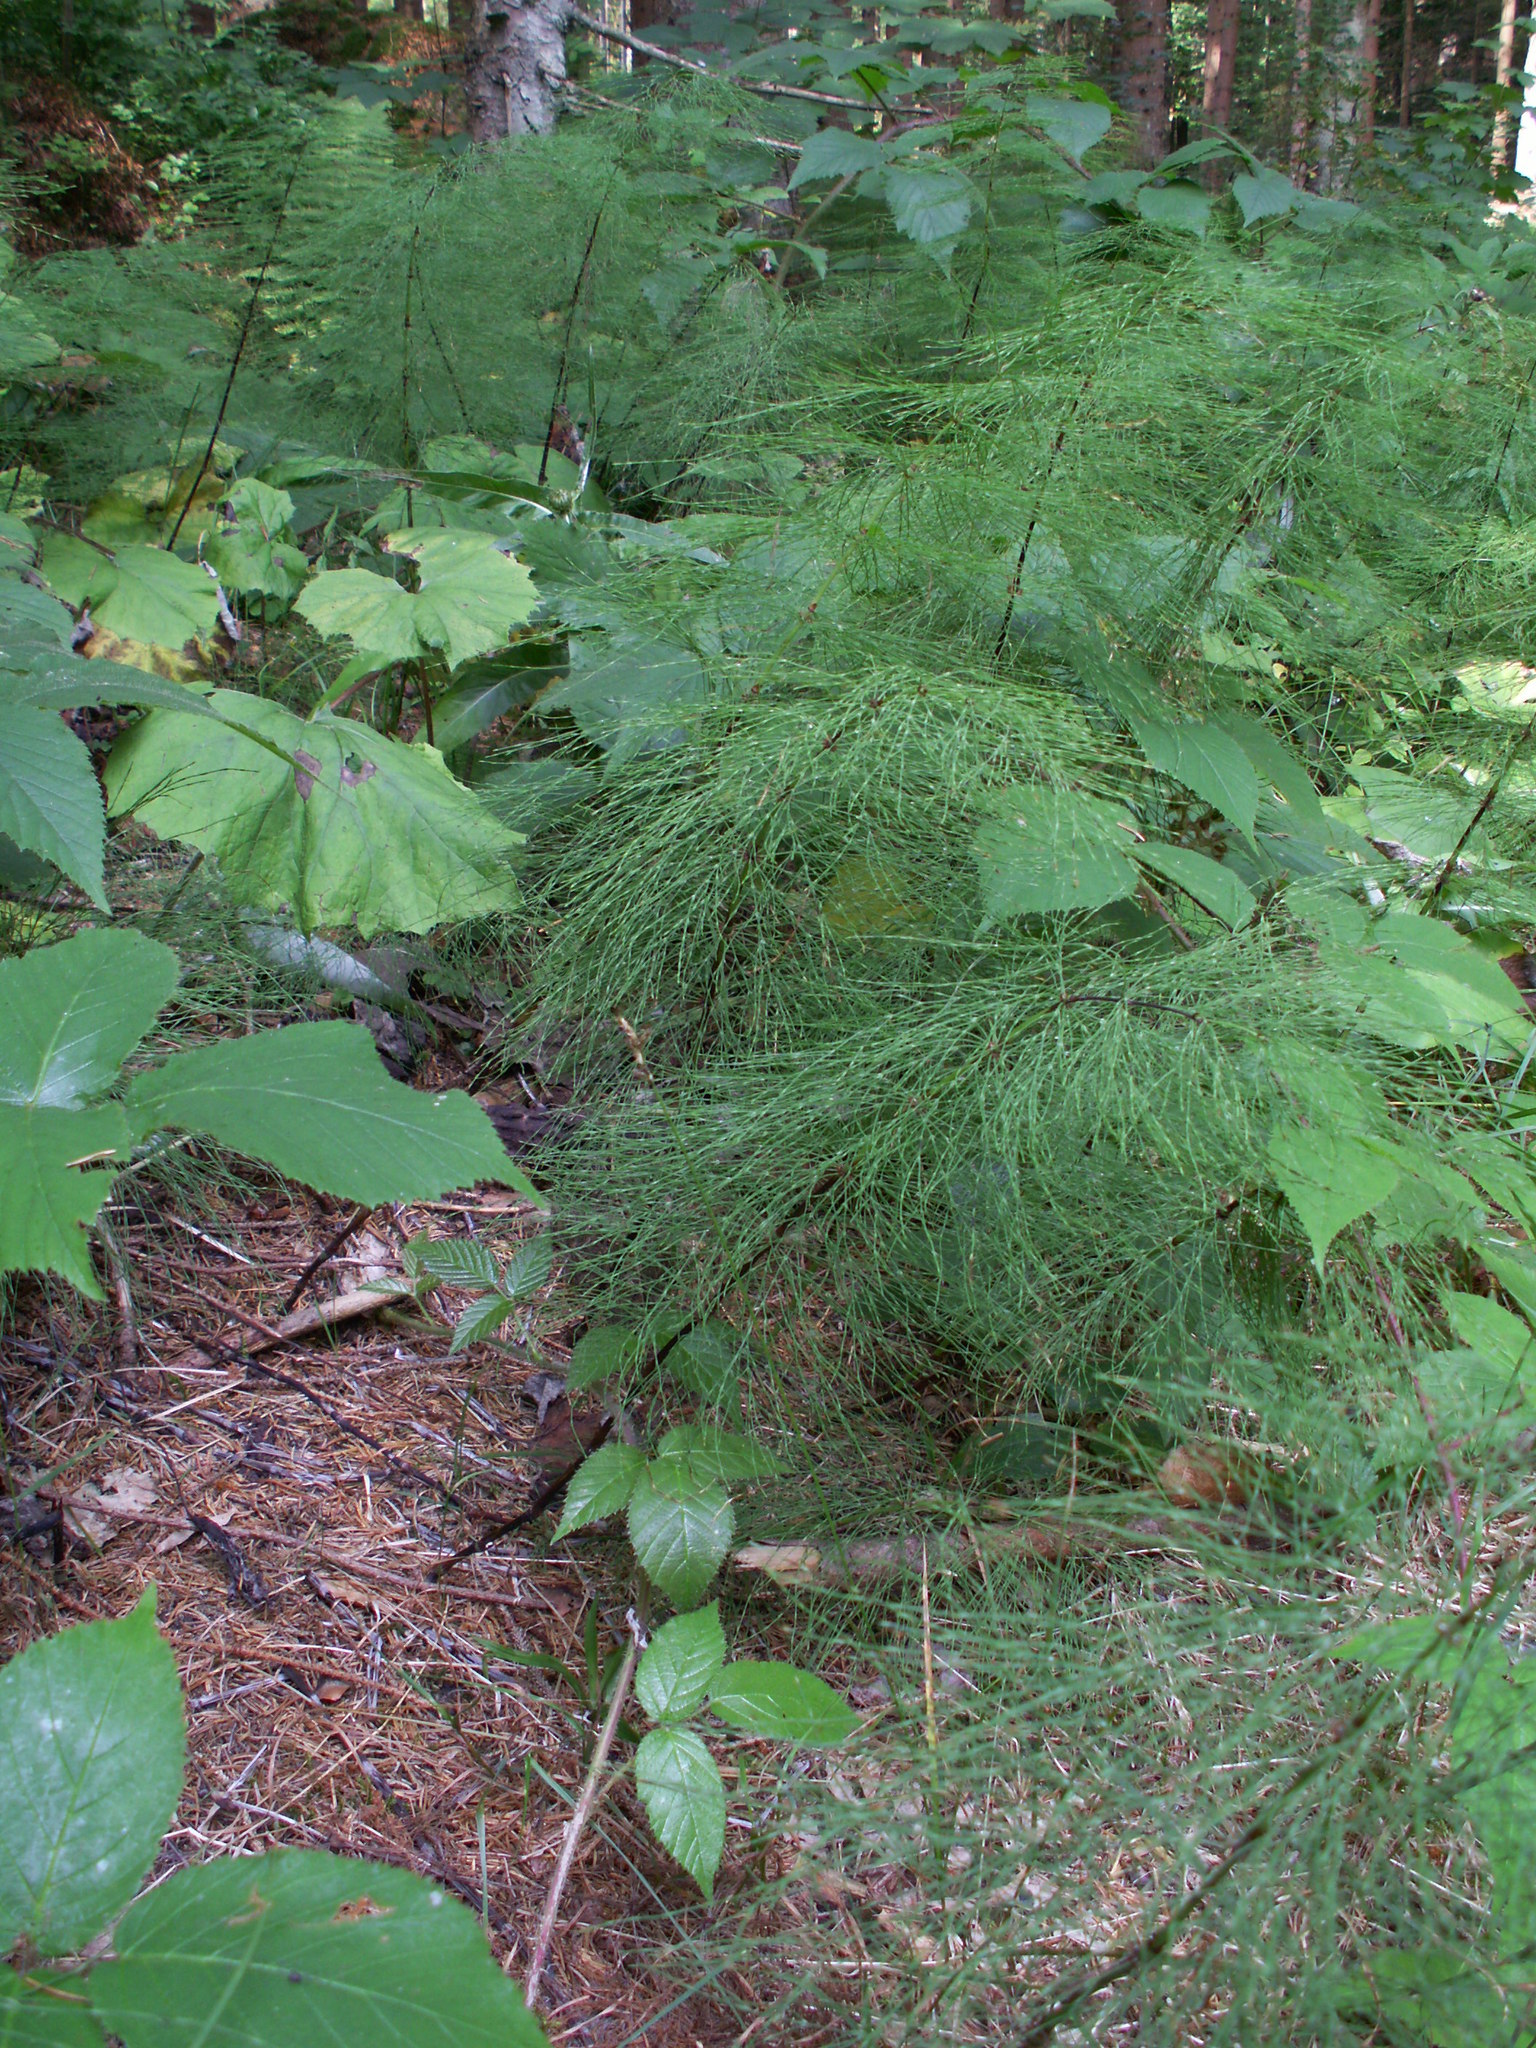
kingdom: Plantae
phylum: Tracheophyta
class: Polypodiopsida
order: Equisetales
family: Equisetaceae
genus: Equisetum
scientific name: Equisetum sylvaticum
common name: Wood horsetail
